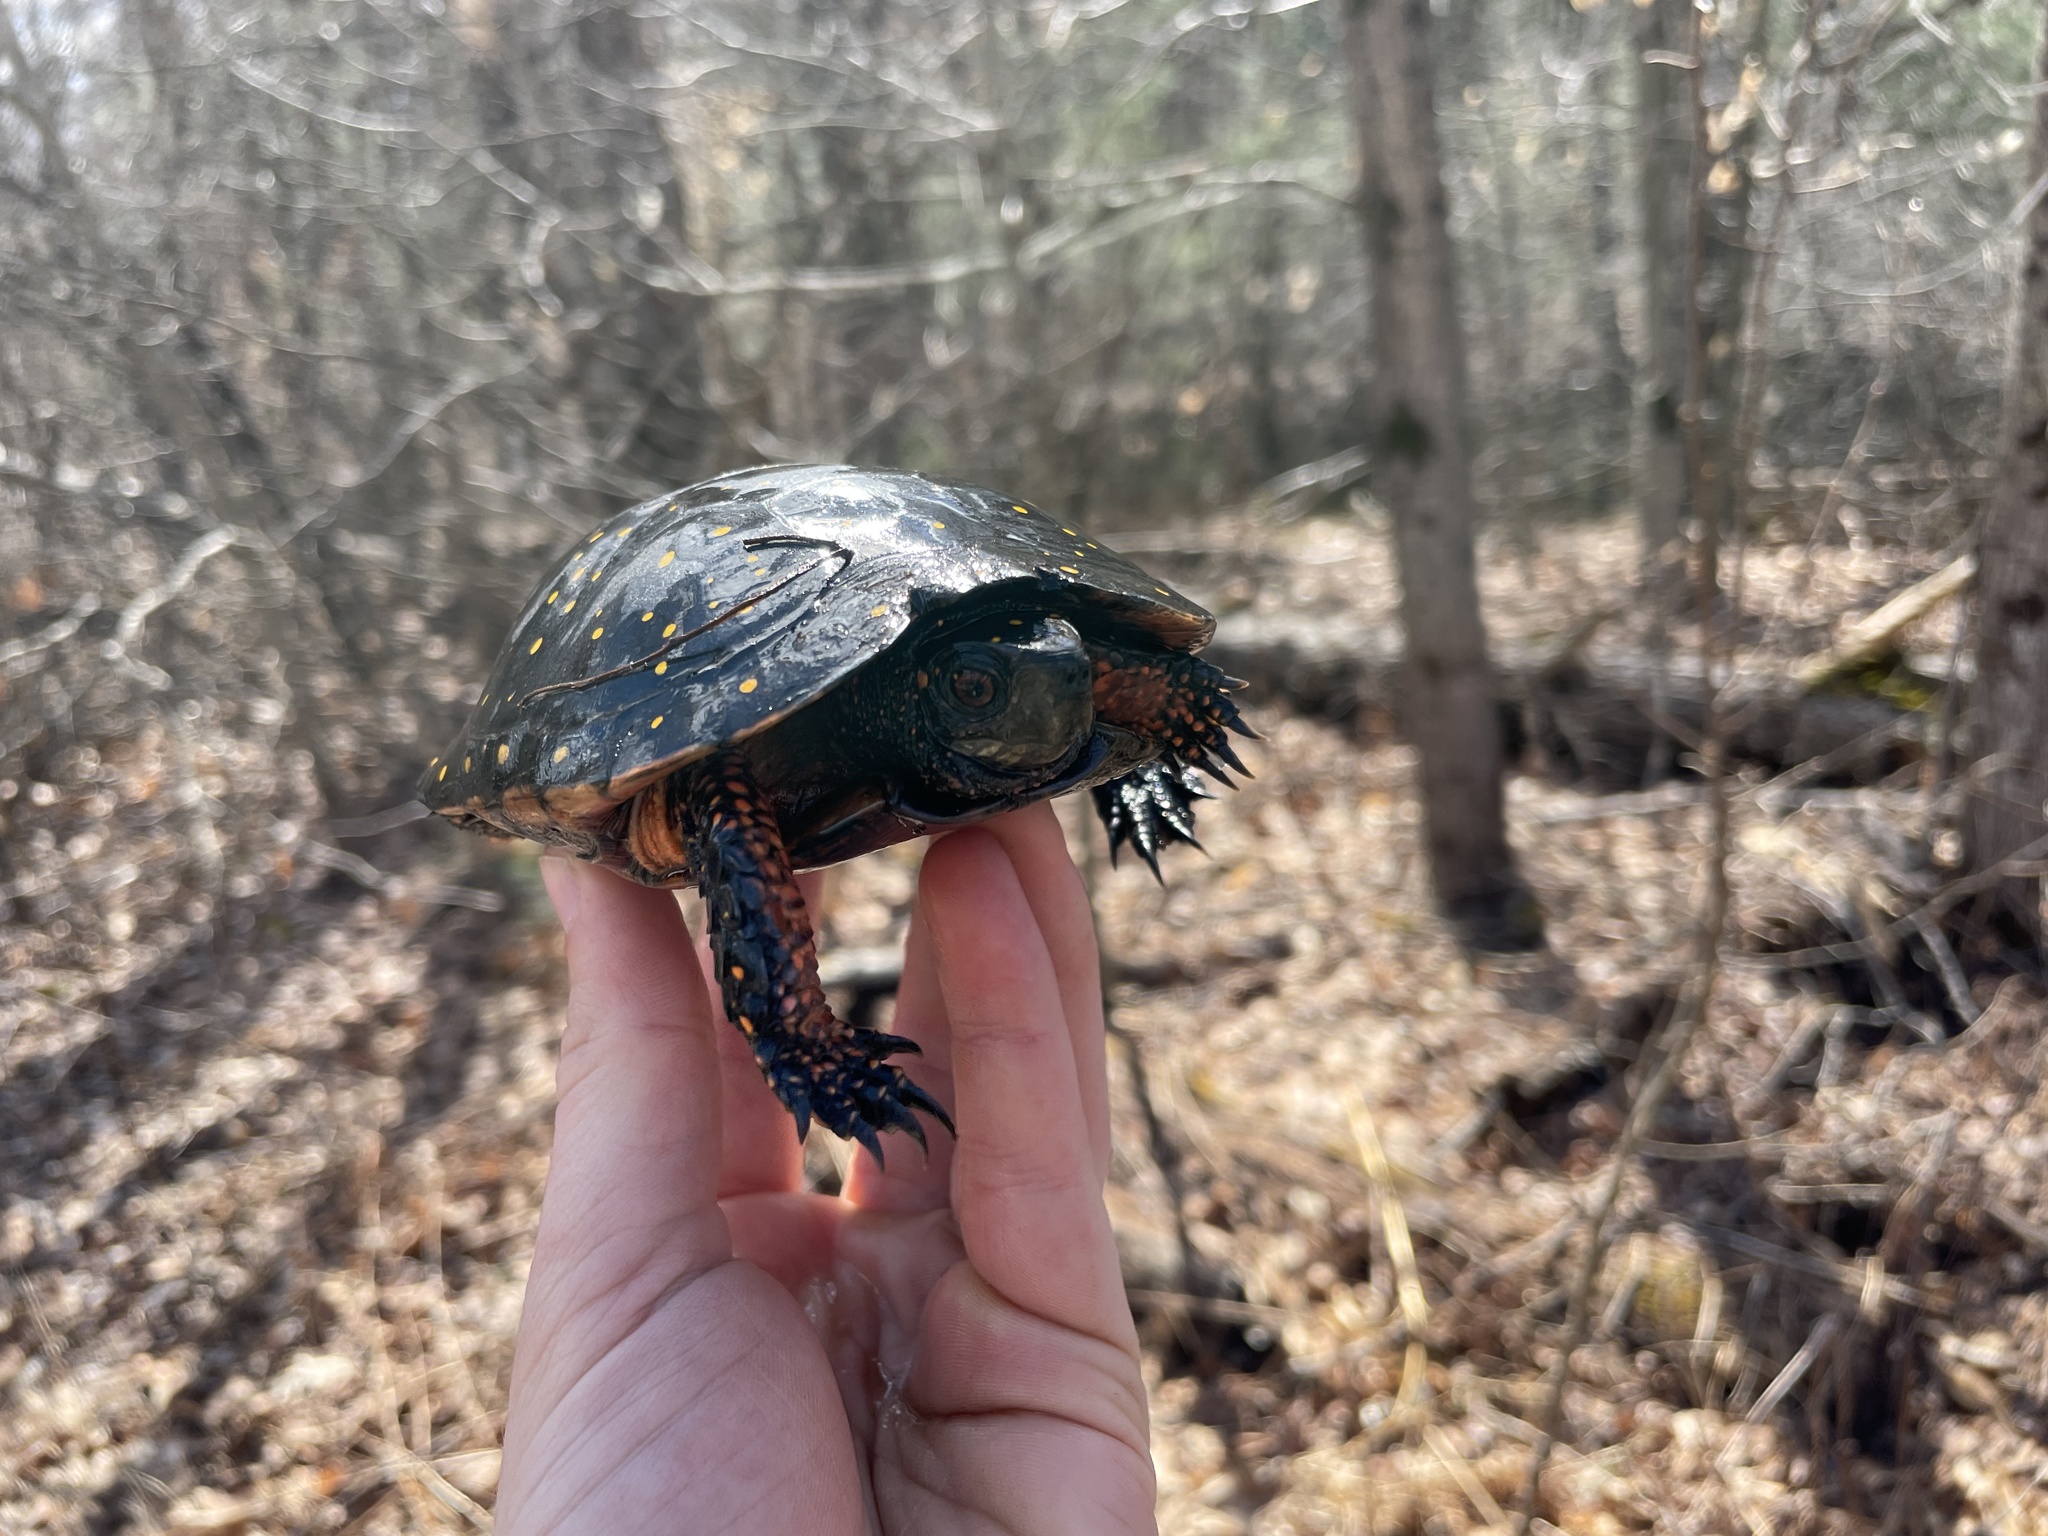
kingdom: Animalia
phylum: Chordata
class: Testudines
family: Emydidae
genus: Clemmys
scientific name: Clemmys guttata
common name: Spotted turtle
